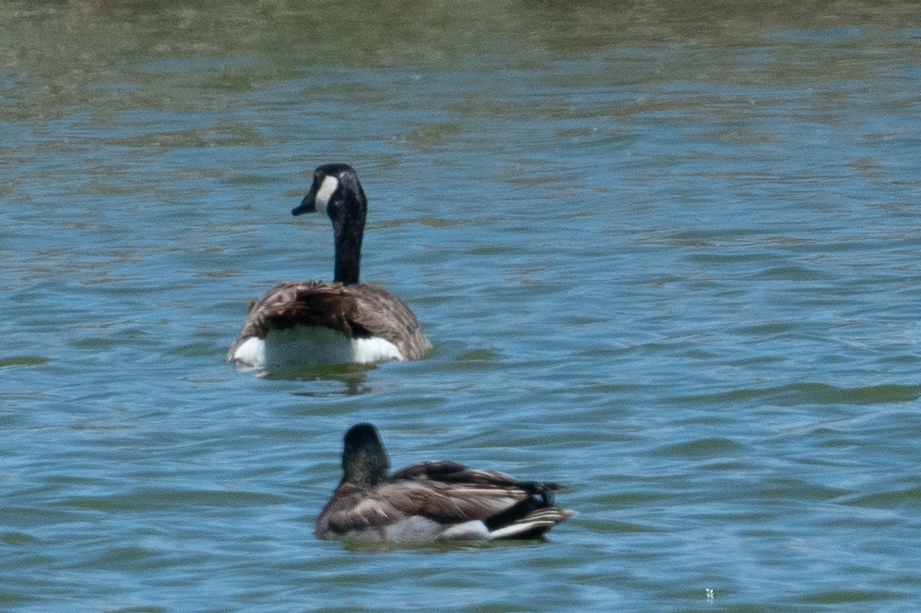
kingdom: Animalia
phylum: Chordata
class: Aves
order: Anseriformes
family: Anatidae
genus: Branta
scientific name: Branta canadensis
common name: Canada goose
